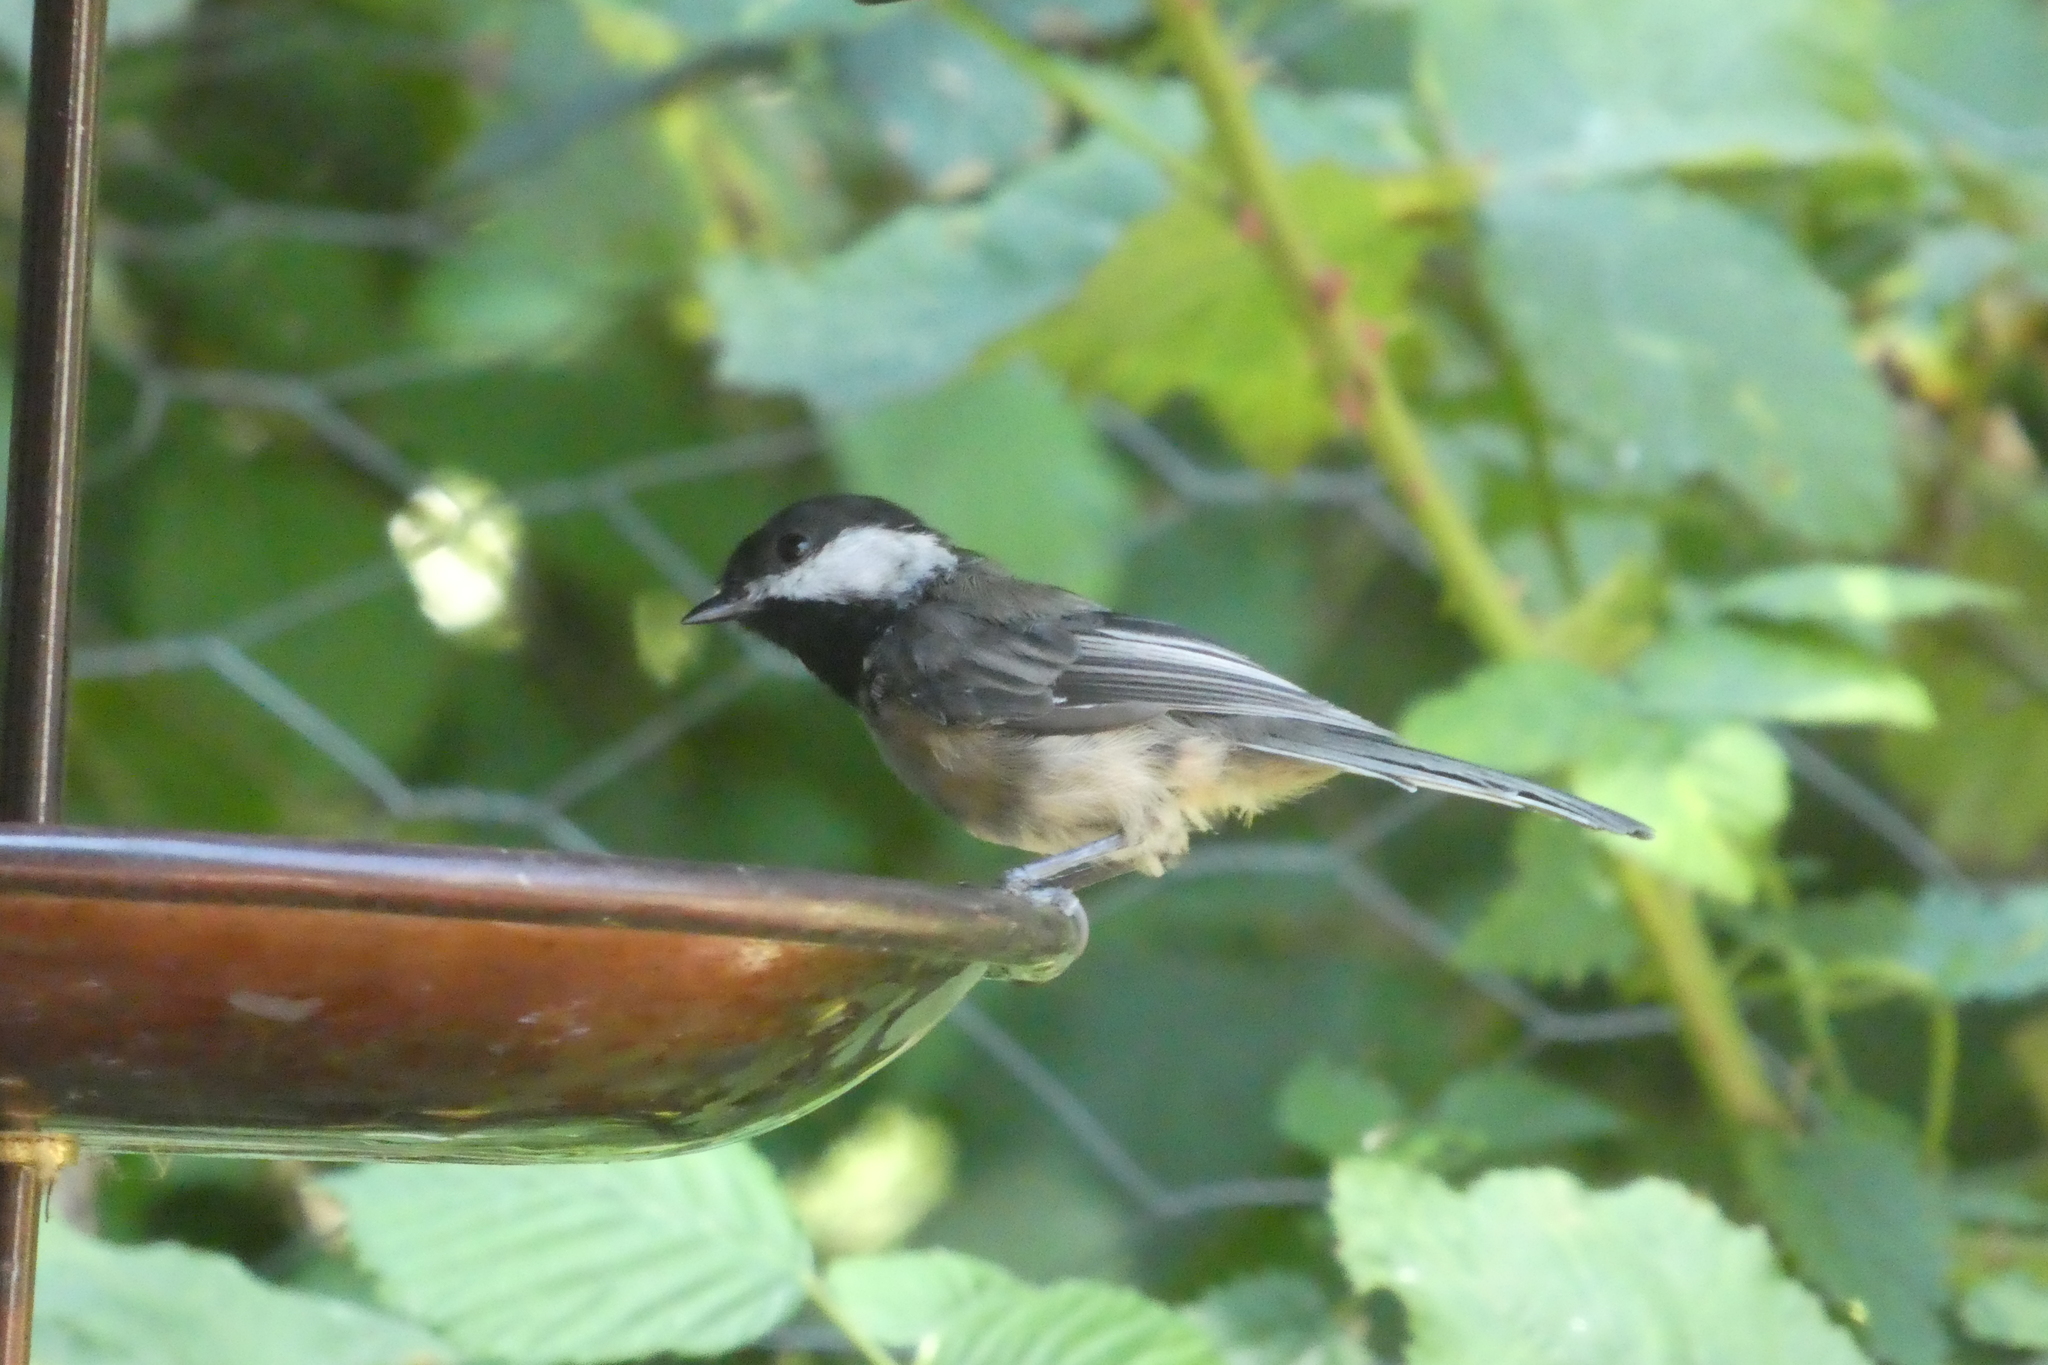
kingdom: Animalia
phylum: Chordata
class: Aves
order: Passeriformes
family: Paridae
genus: Poecile
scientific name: Poecile atricapillus
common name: Black-capped chickadee
